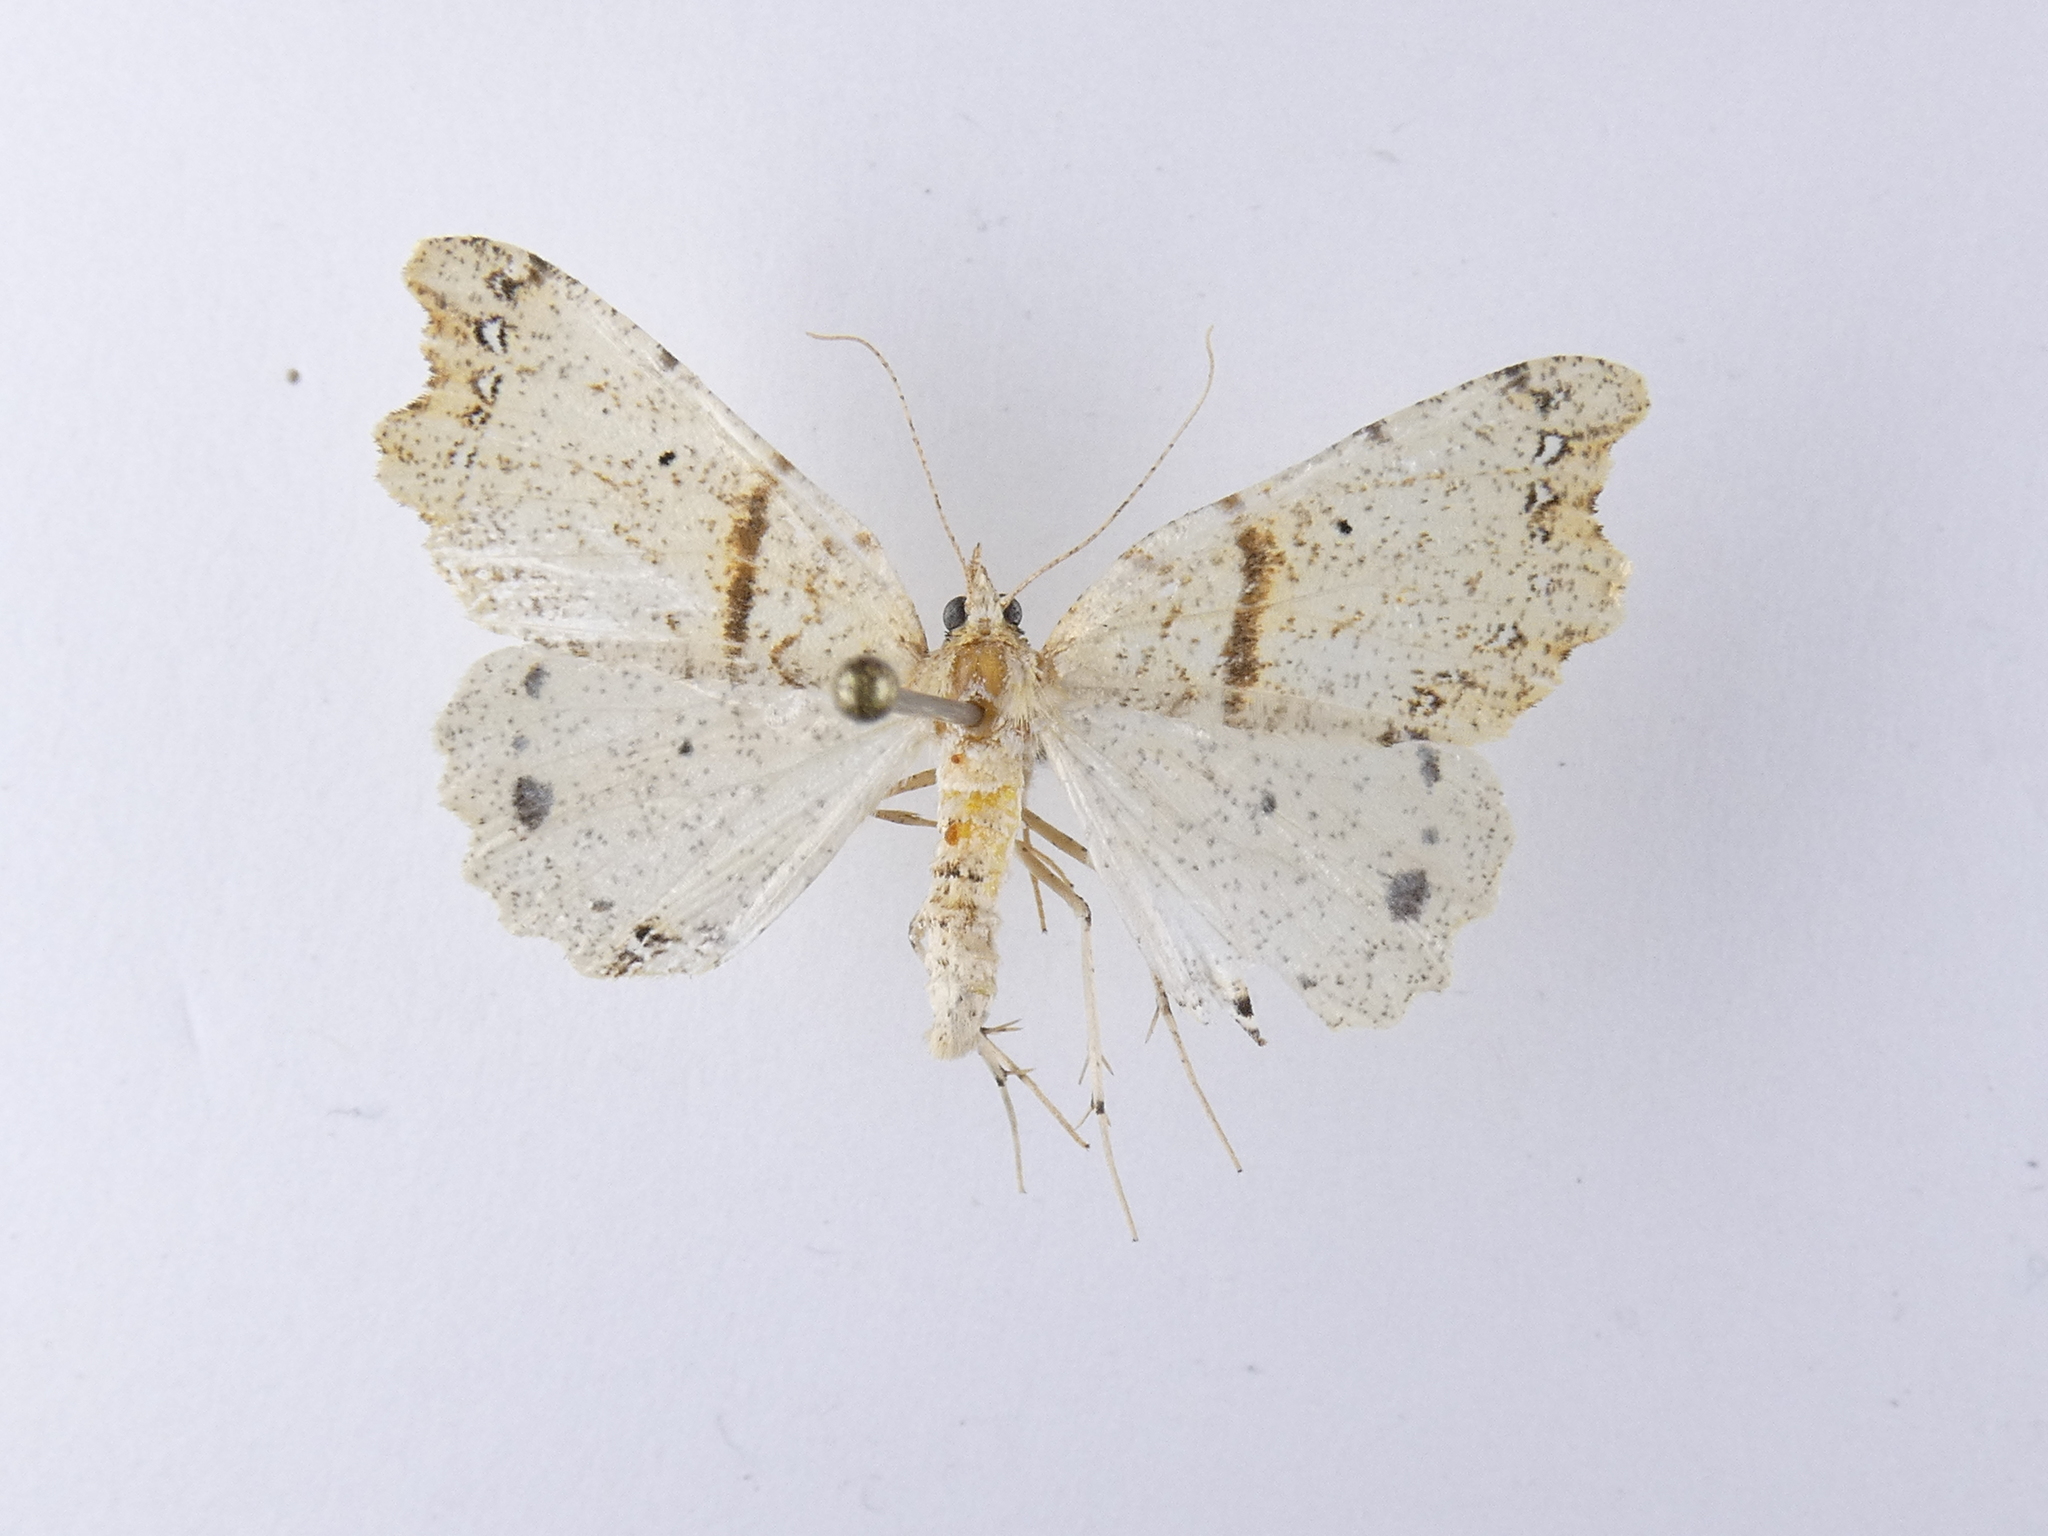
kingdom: Animalia
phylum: Arthropoda
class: Insecta
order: Lepidoptera
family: Geometridae
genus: Chalastra
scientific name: Chalastra pellurgata
